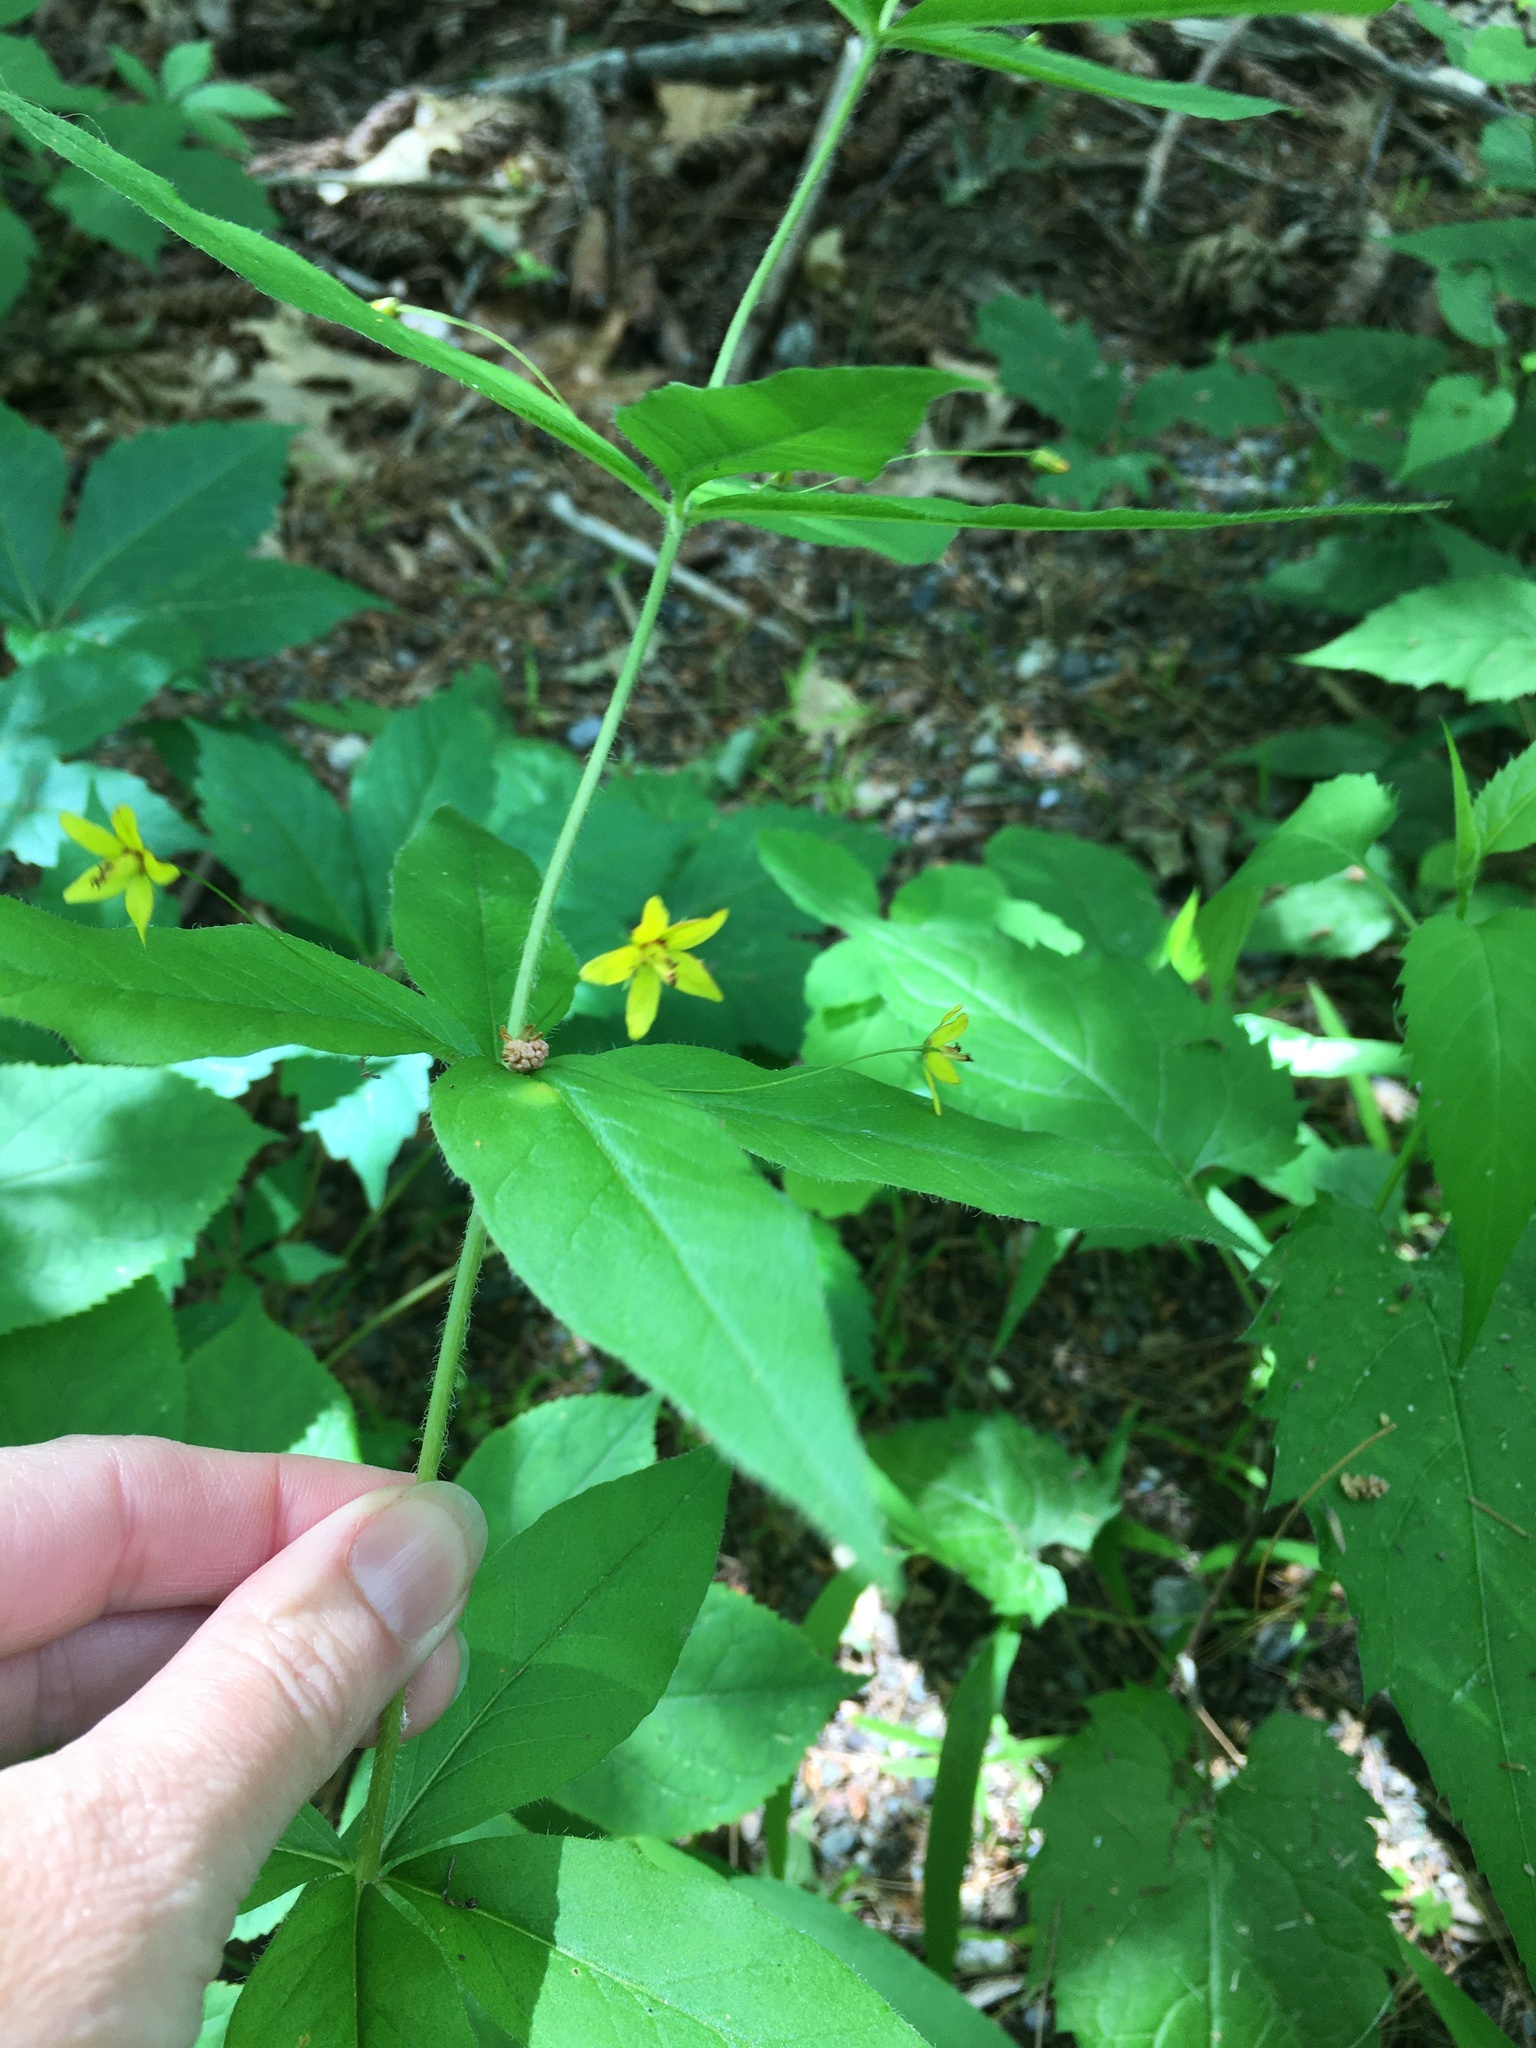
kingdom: Plantae
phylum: Tracheophyta
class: Magnoliopsida
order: Ericales
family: Primulaceae
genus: Lysimachia
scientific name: Lysimachia quadrifolia
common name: Whorled loosestrife
